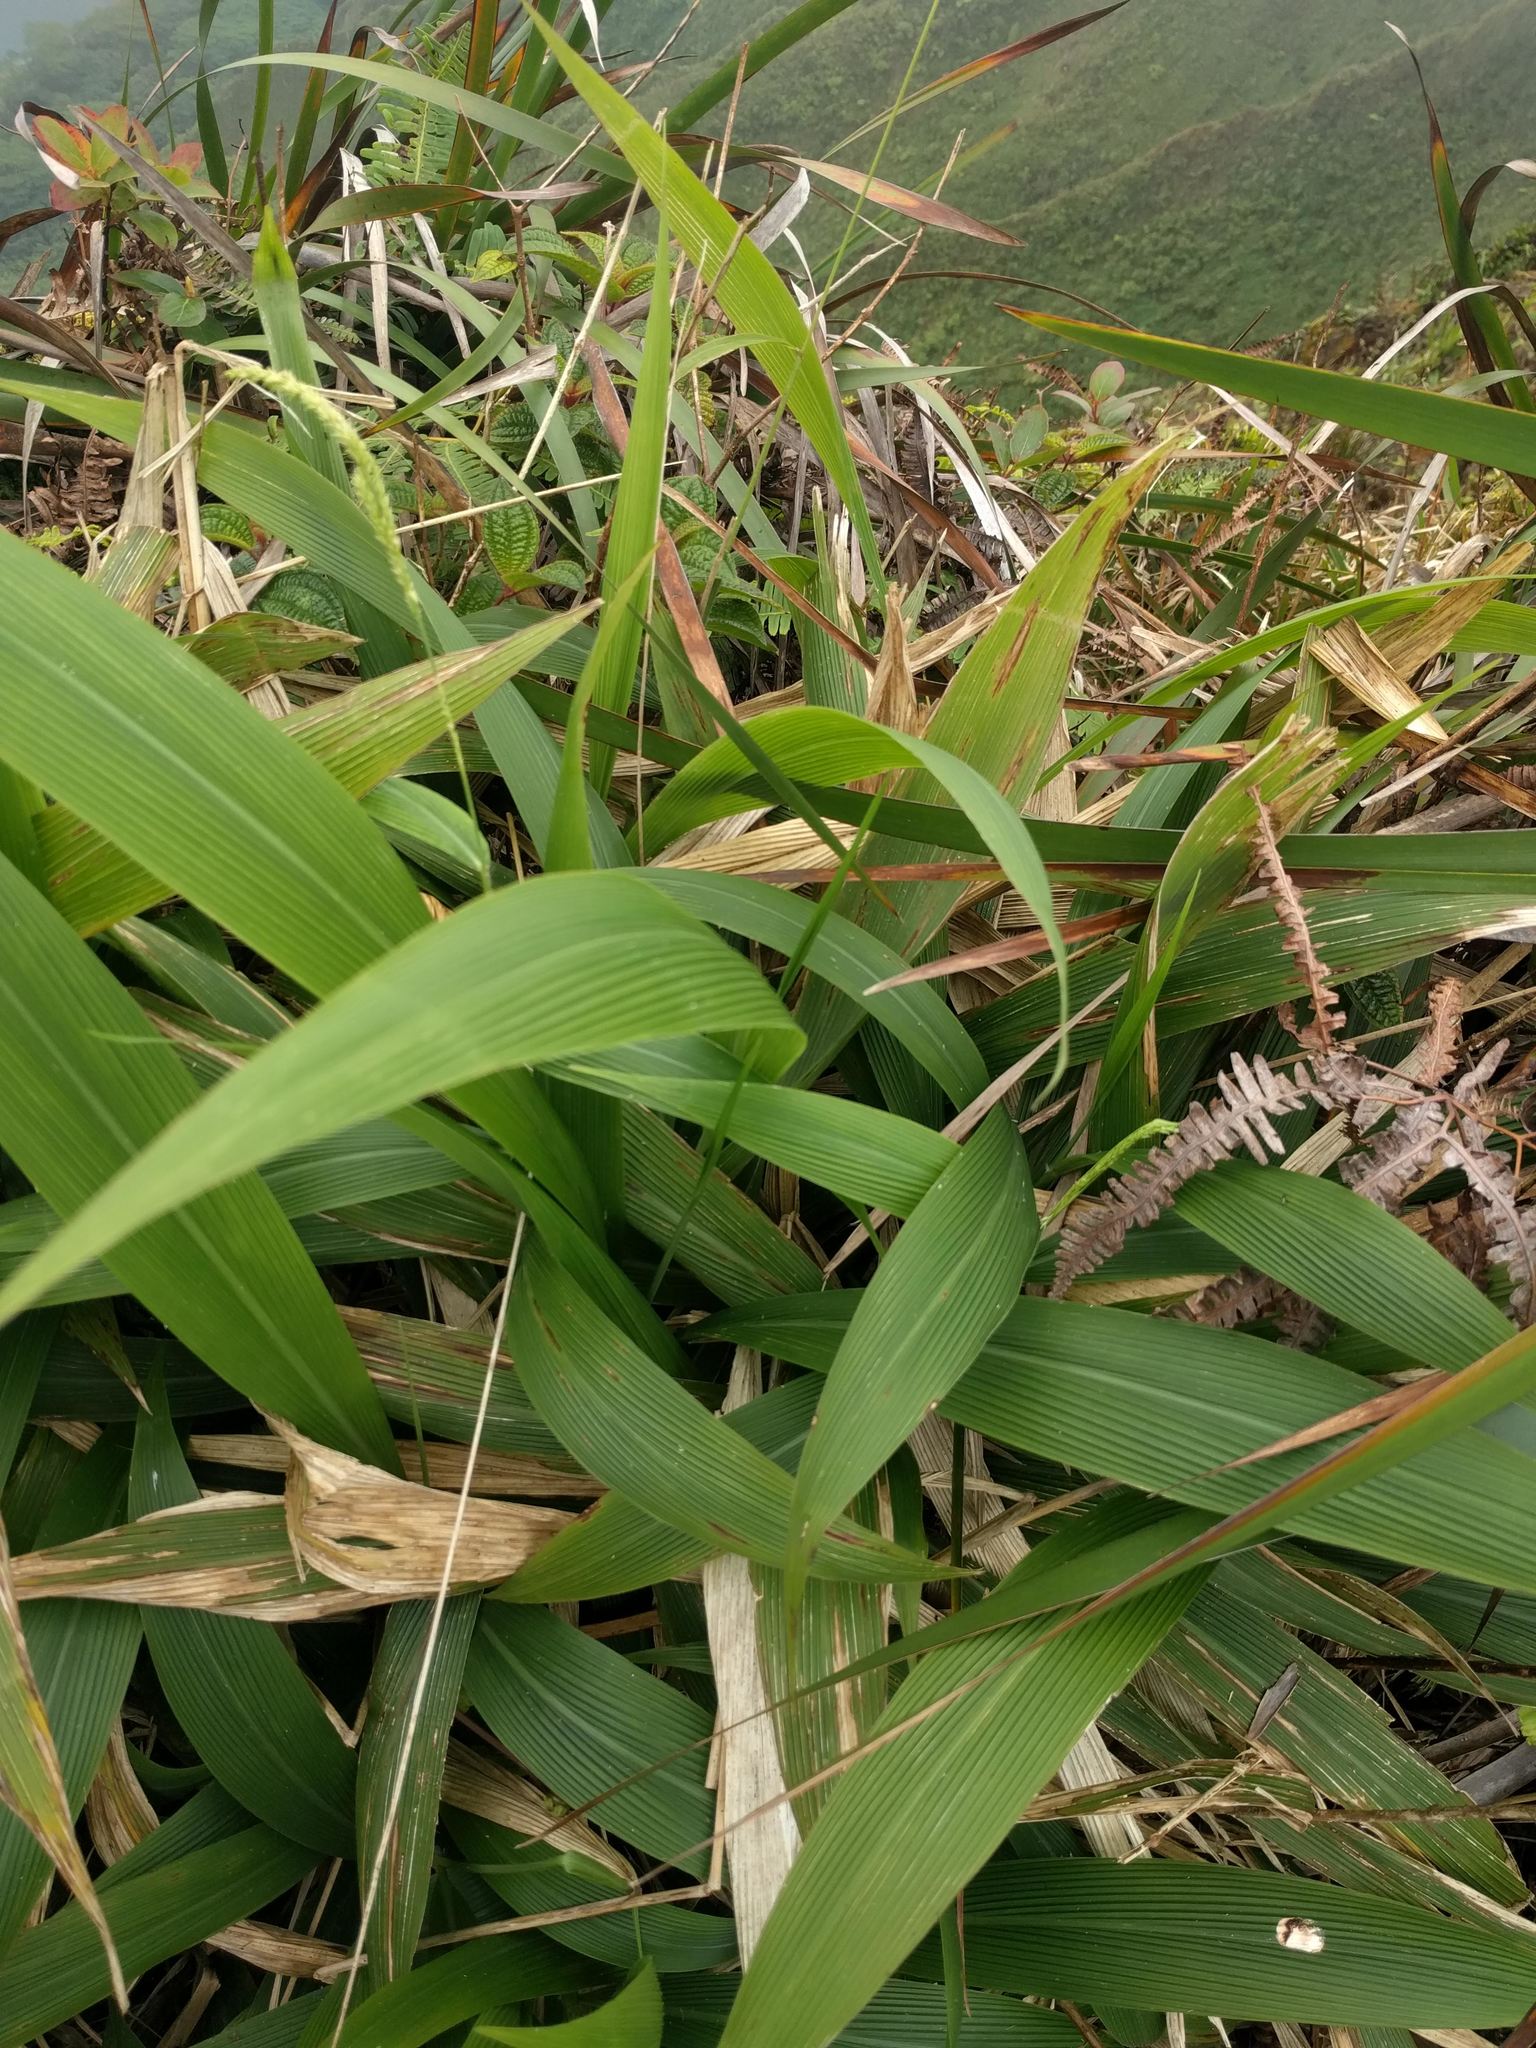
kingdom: Plantae
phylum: Tracheophyta
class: Liliopsida
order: Poales
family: Poaceae
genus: Setaria
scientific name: Setaria palmifolia
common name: Broadleaved bristlegrass
